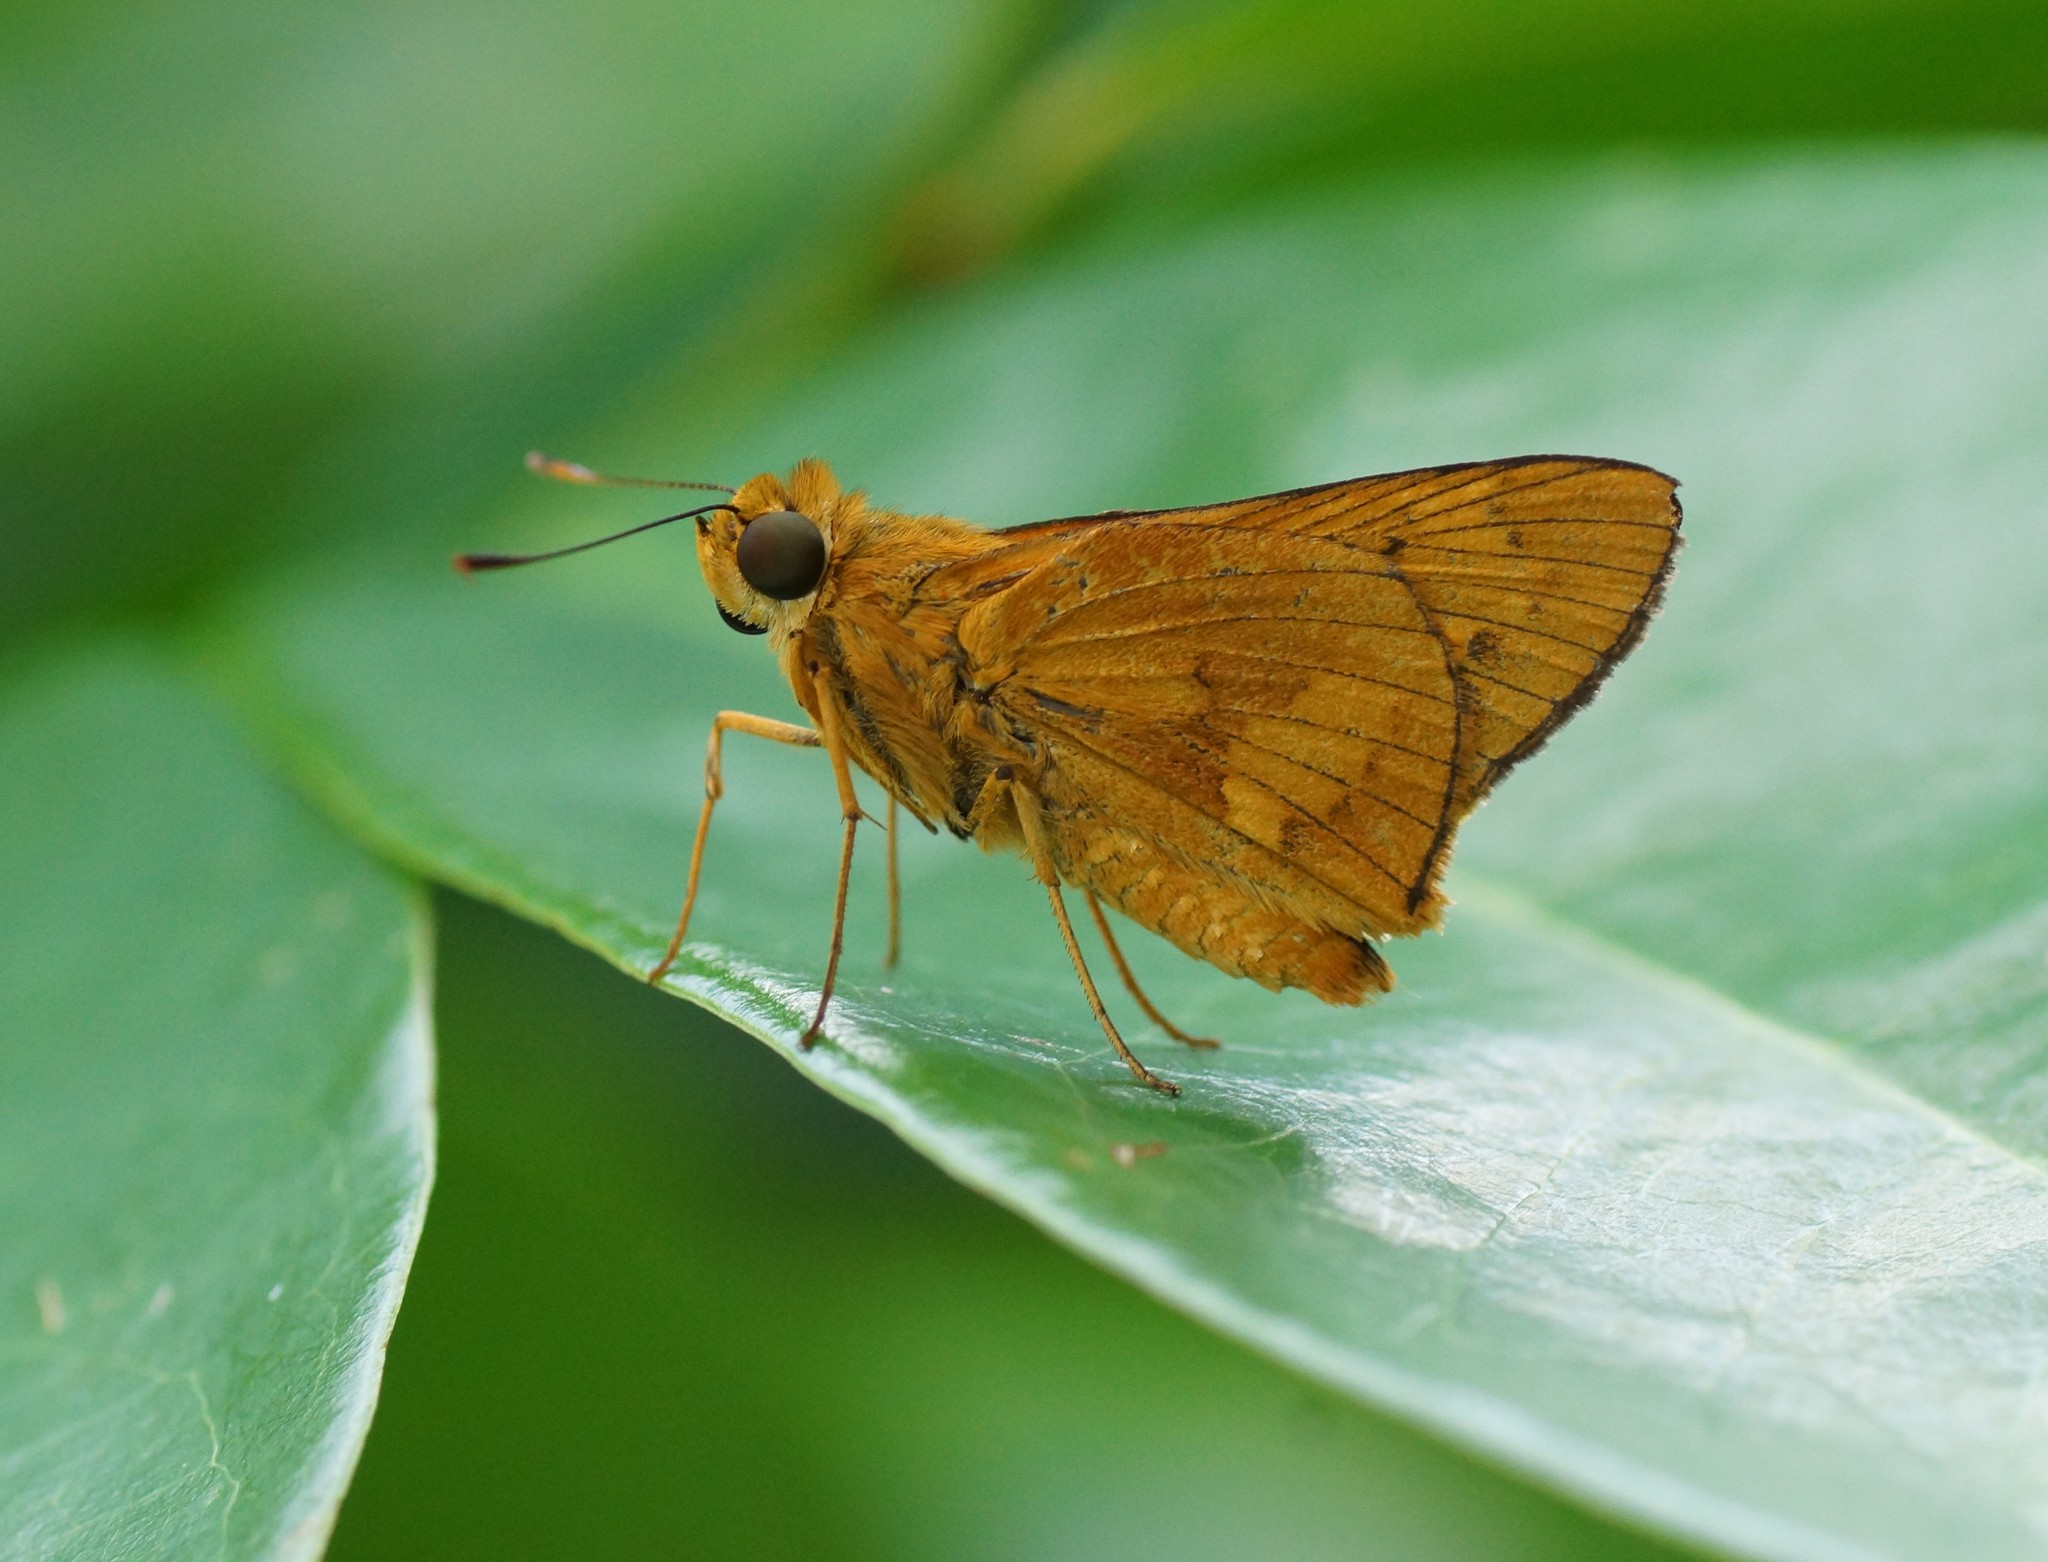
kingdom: Animalia
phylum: Arthropoda
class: Insecta
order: Lepidoptera
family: Hesperiidae
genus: Cephrenes
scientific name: Cephrenes augiades
